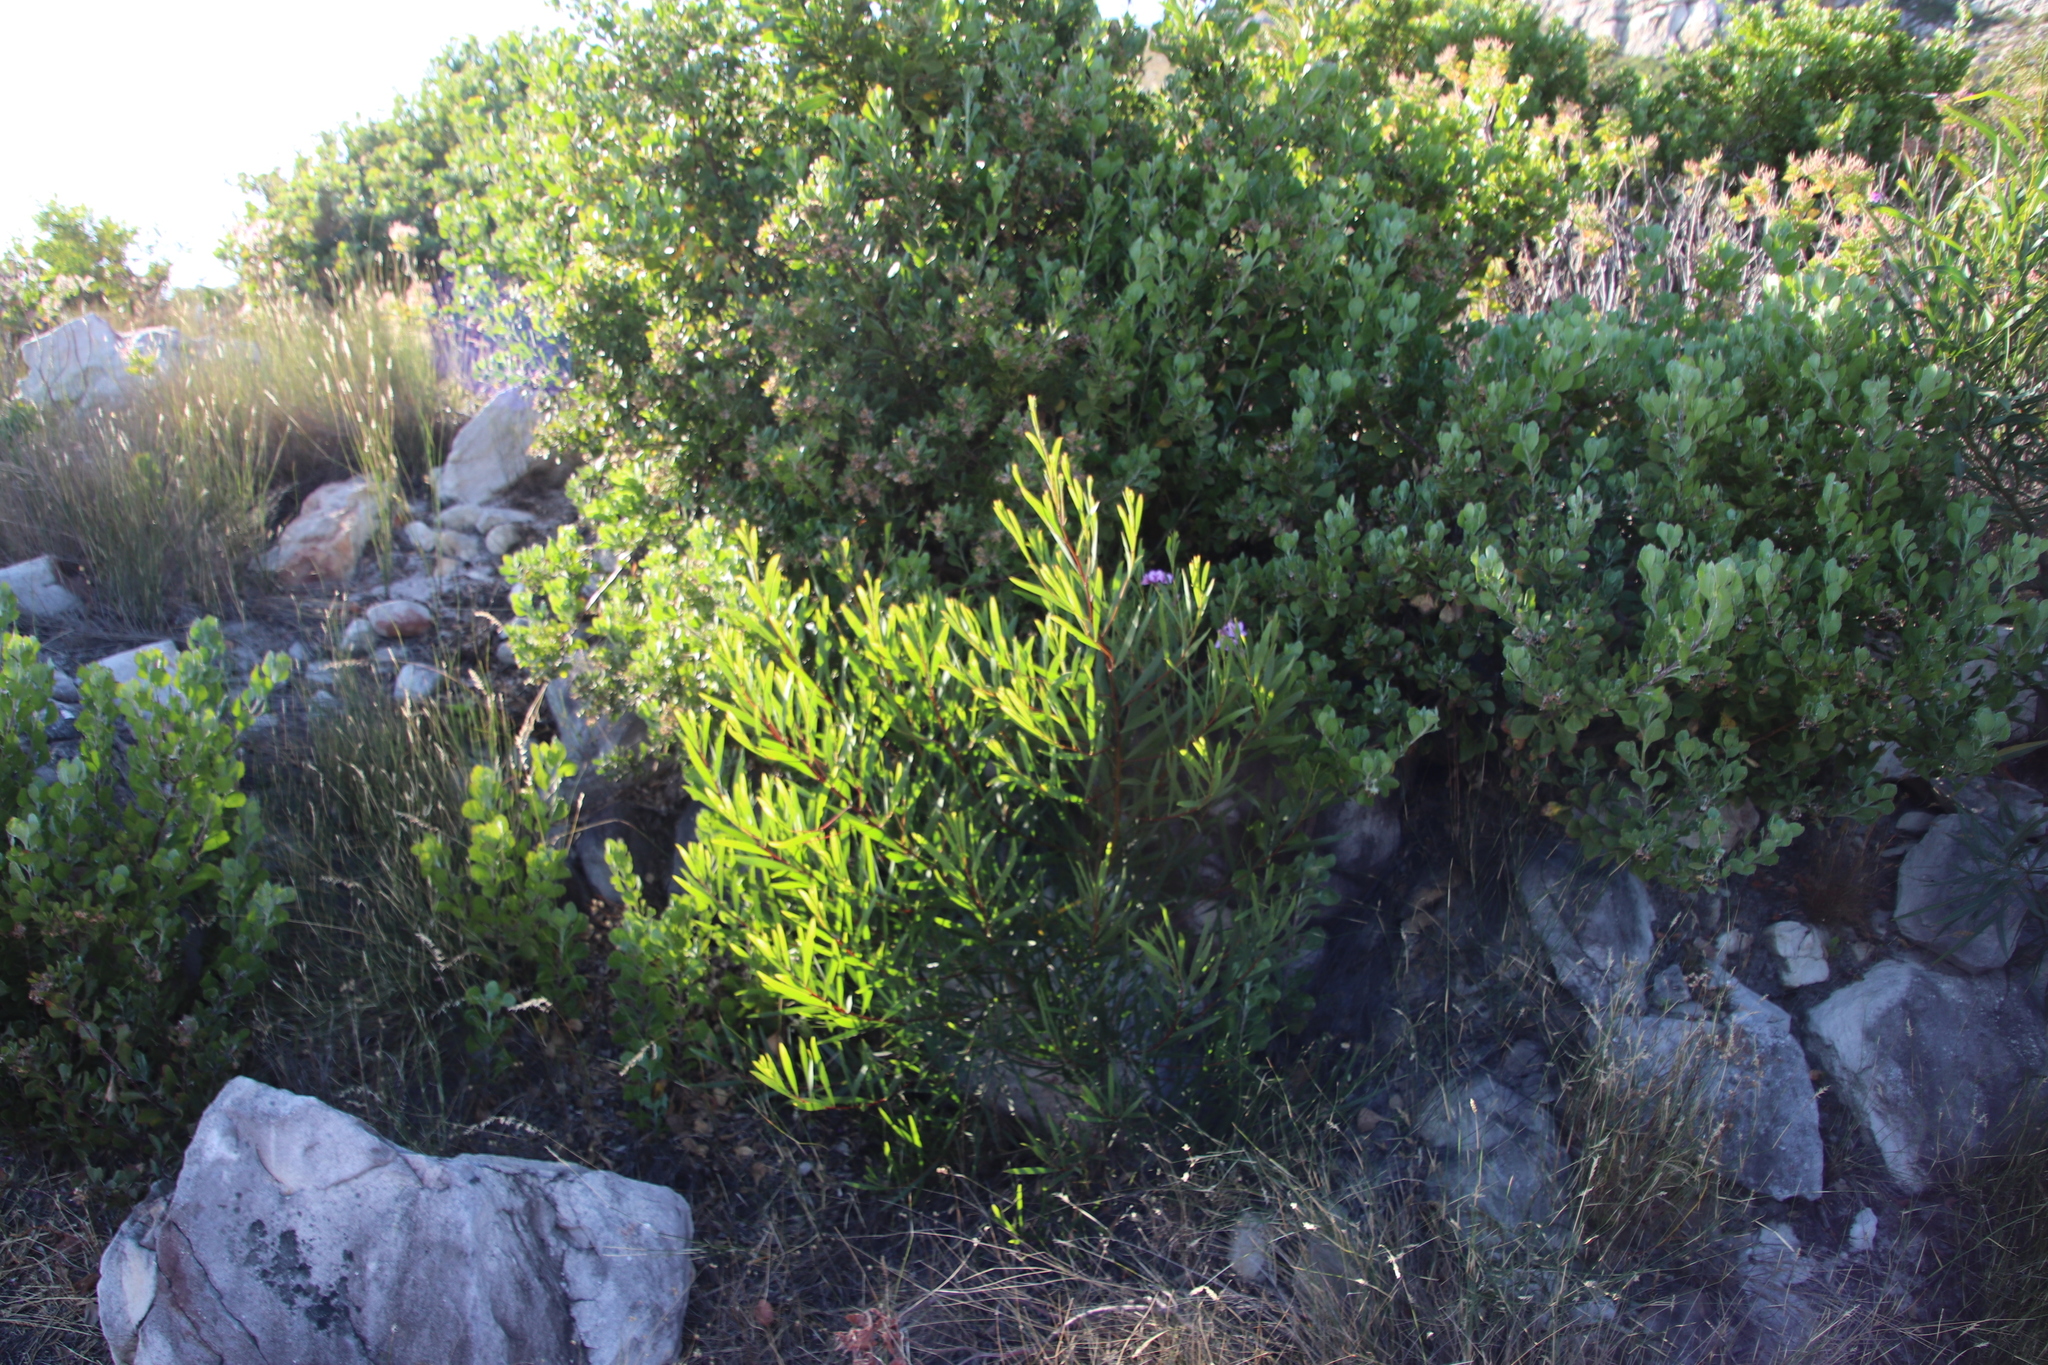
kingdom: Plantae
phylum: Tracheophyta
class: Magnoliopsida
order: Fabales
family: Fabaceae
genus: Acacia
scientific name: Acacia longifolia
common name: Sydney golden wattle
